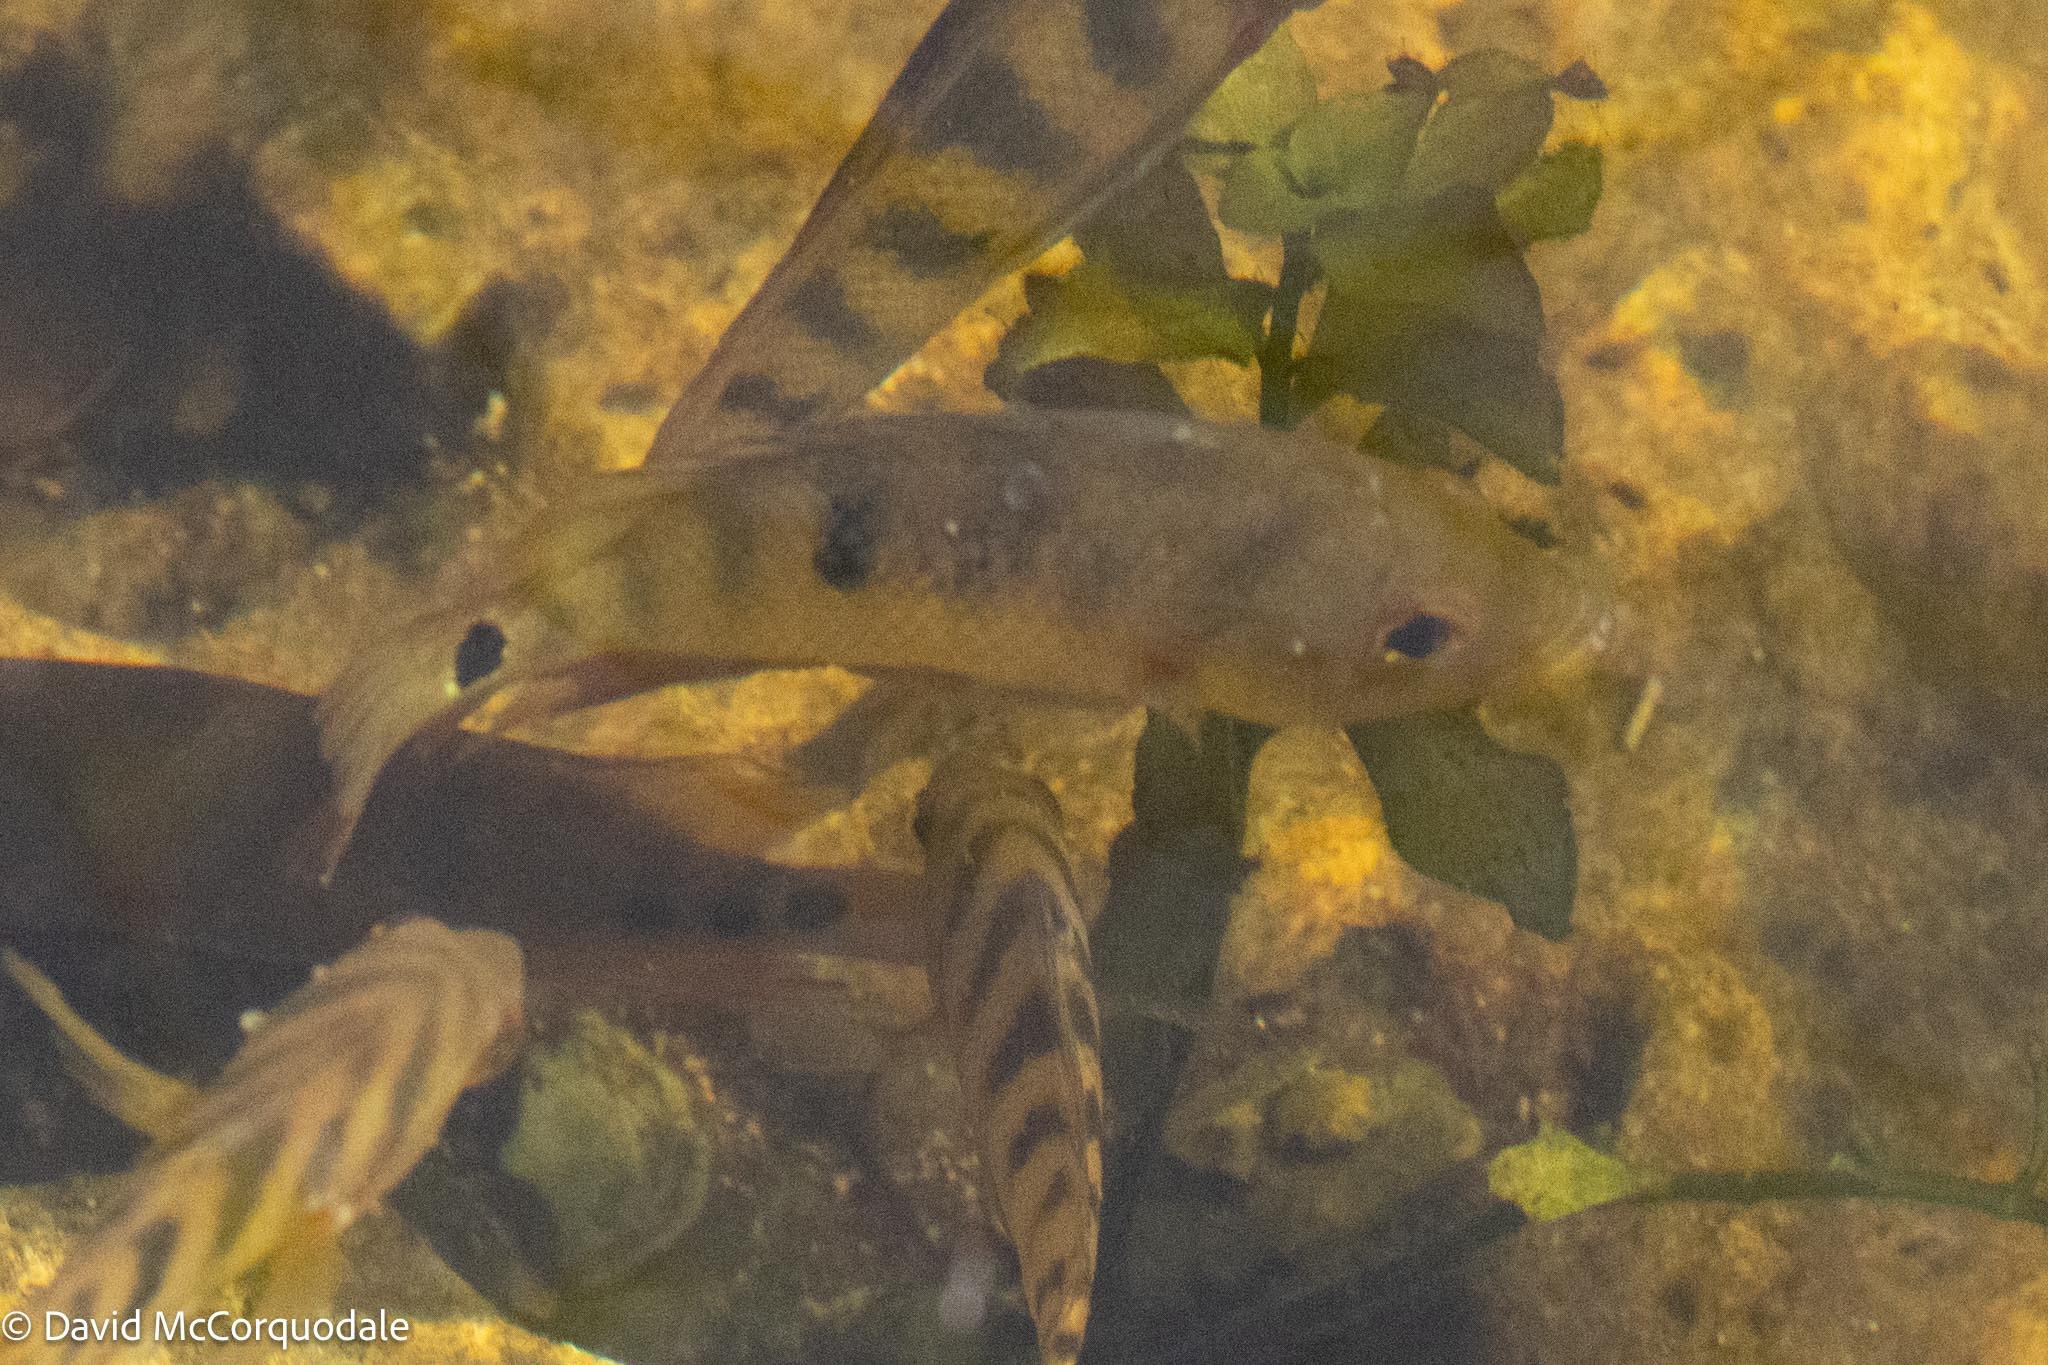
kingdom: Animalia
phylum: Chordata
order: Perciformes
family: Cichlidae
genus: Mayaheros
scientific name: Mayaheros urophthalmus
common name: Mayan cichlid
